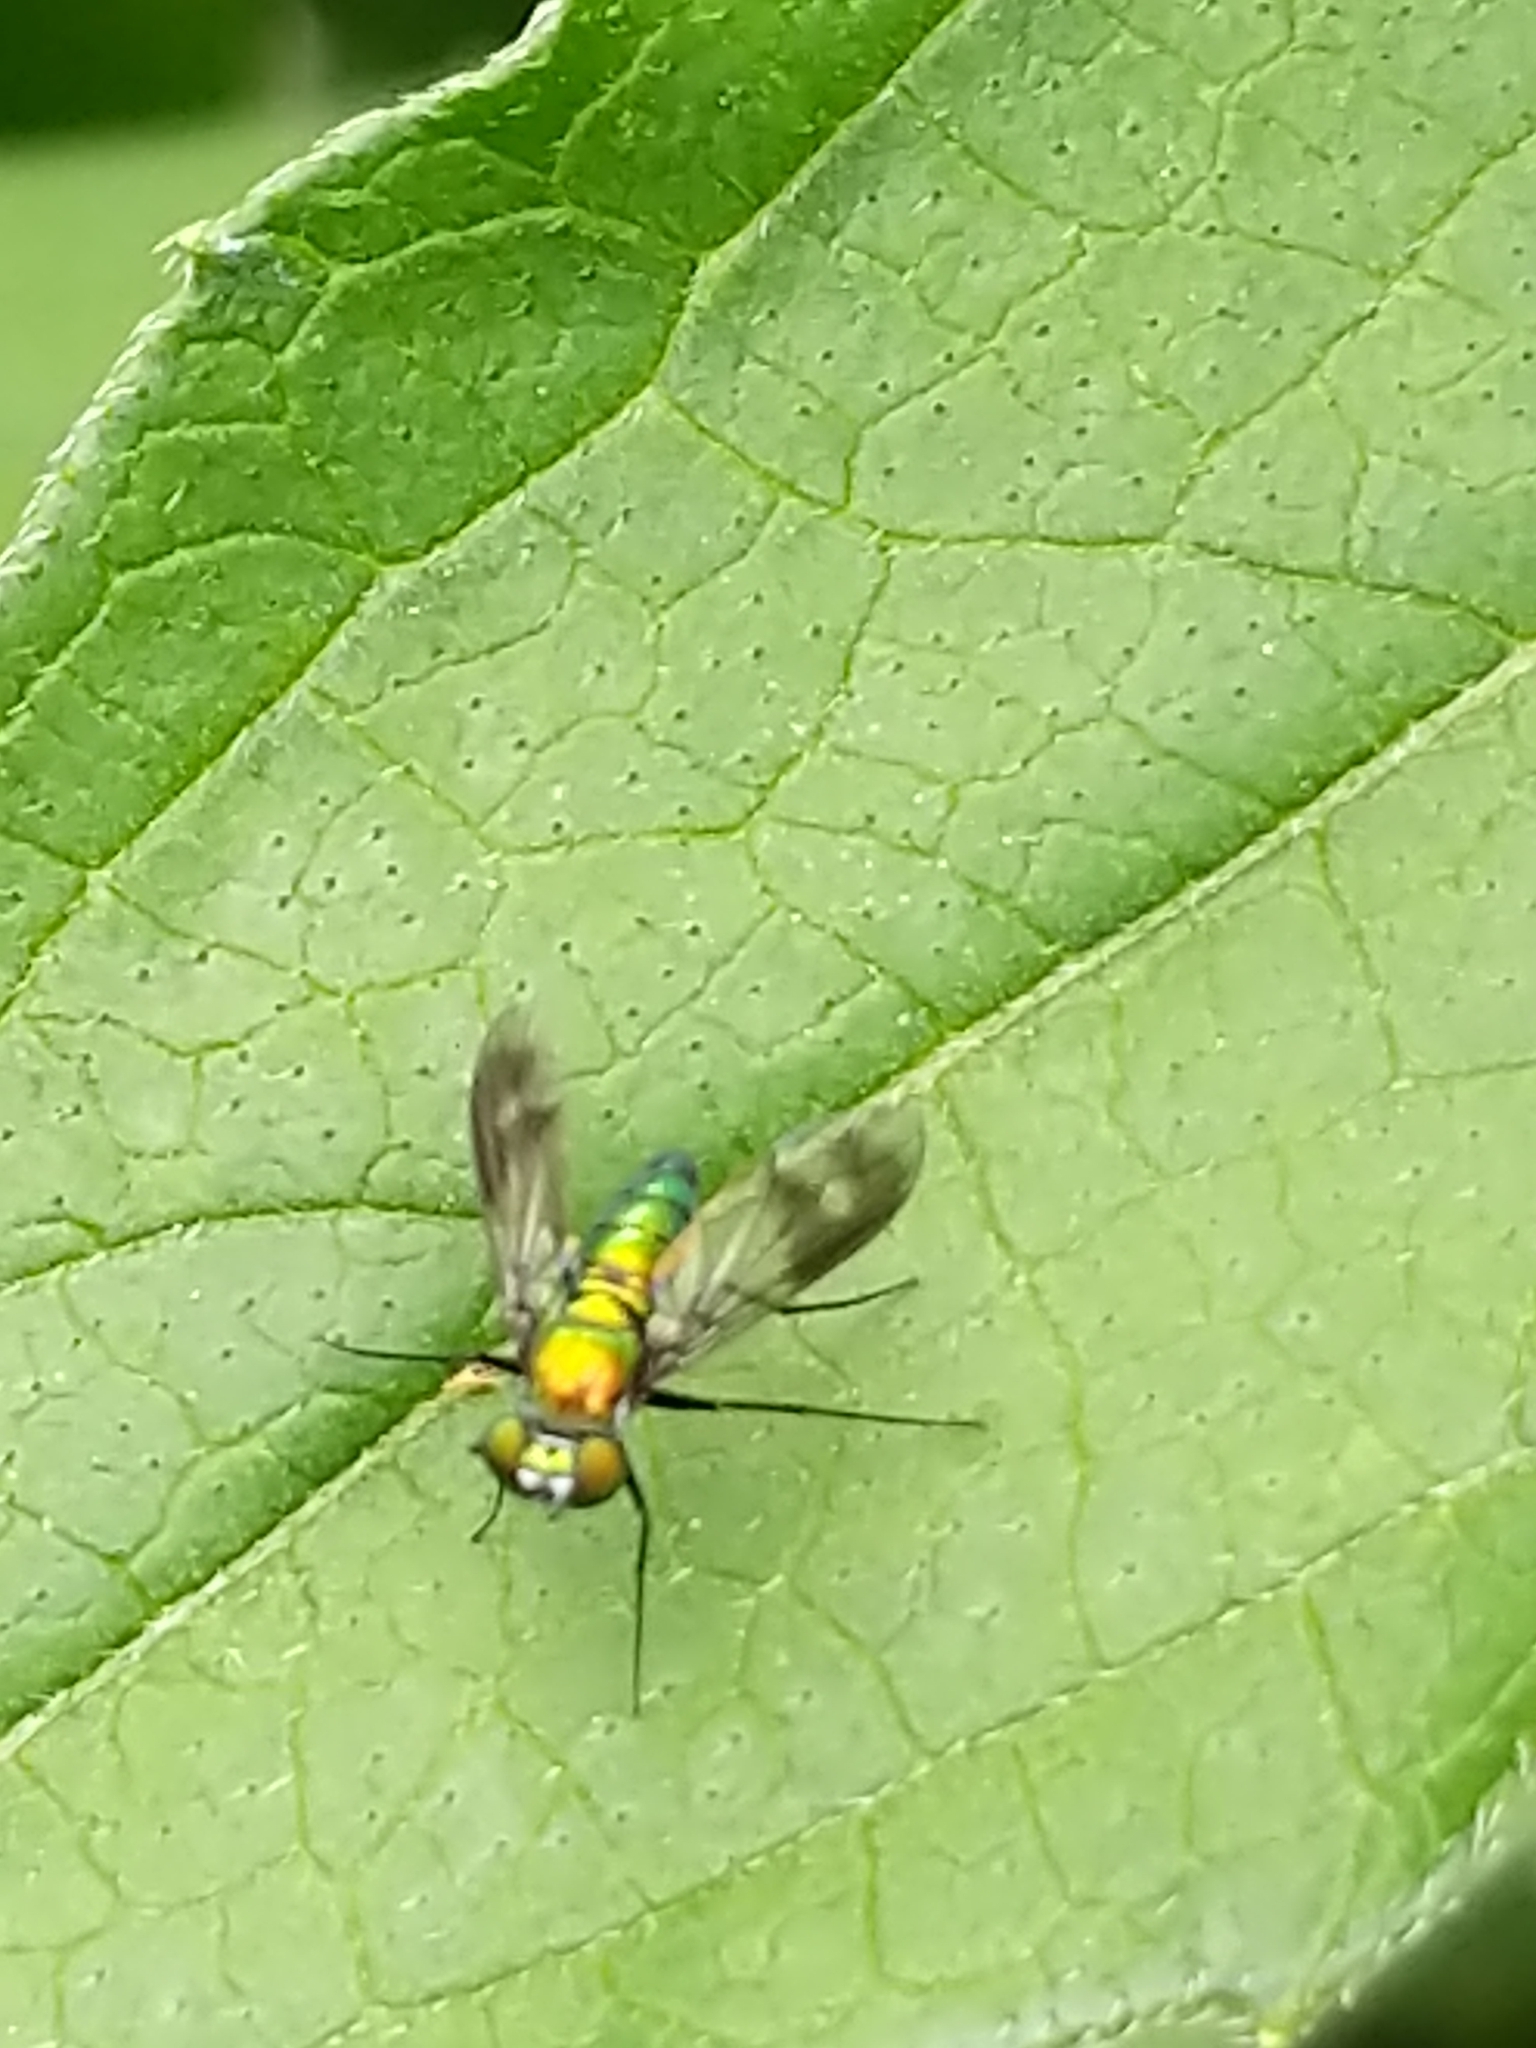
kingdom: Animalia
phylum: Arthropoda
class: Insecta
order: Diptera
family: Dolichopodidae
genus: Condylostylus
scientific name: Condylostylus patibulatus
